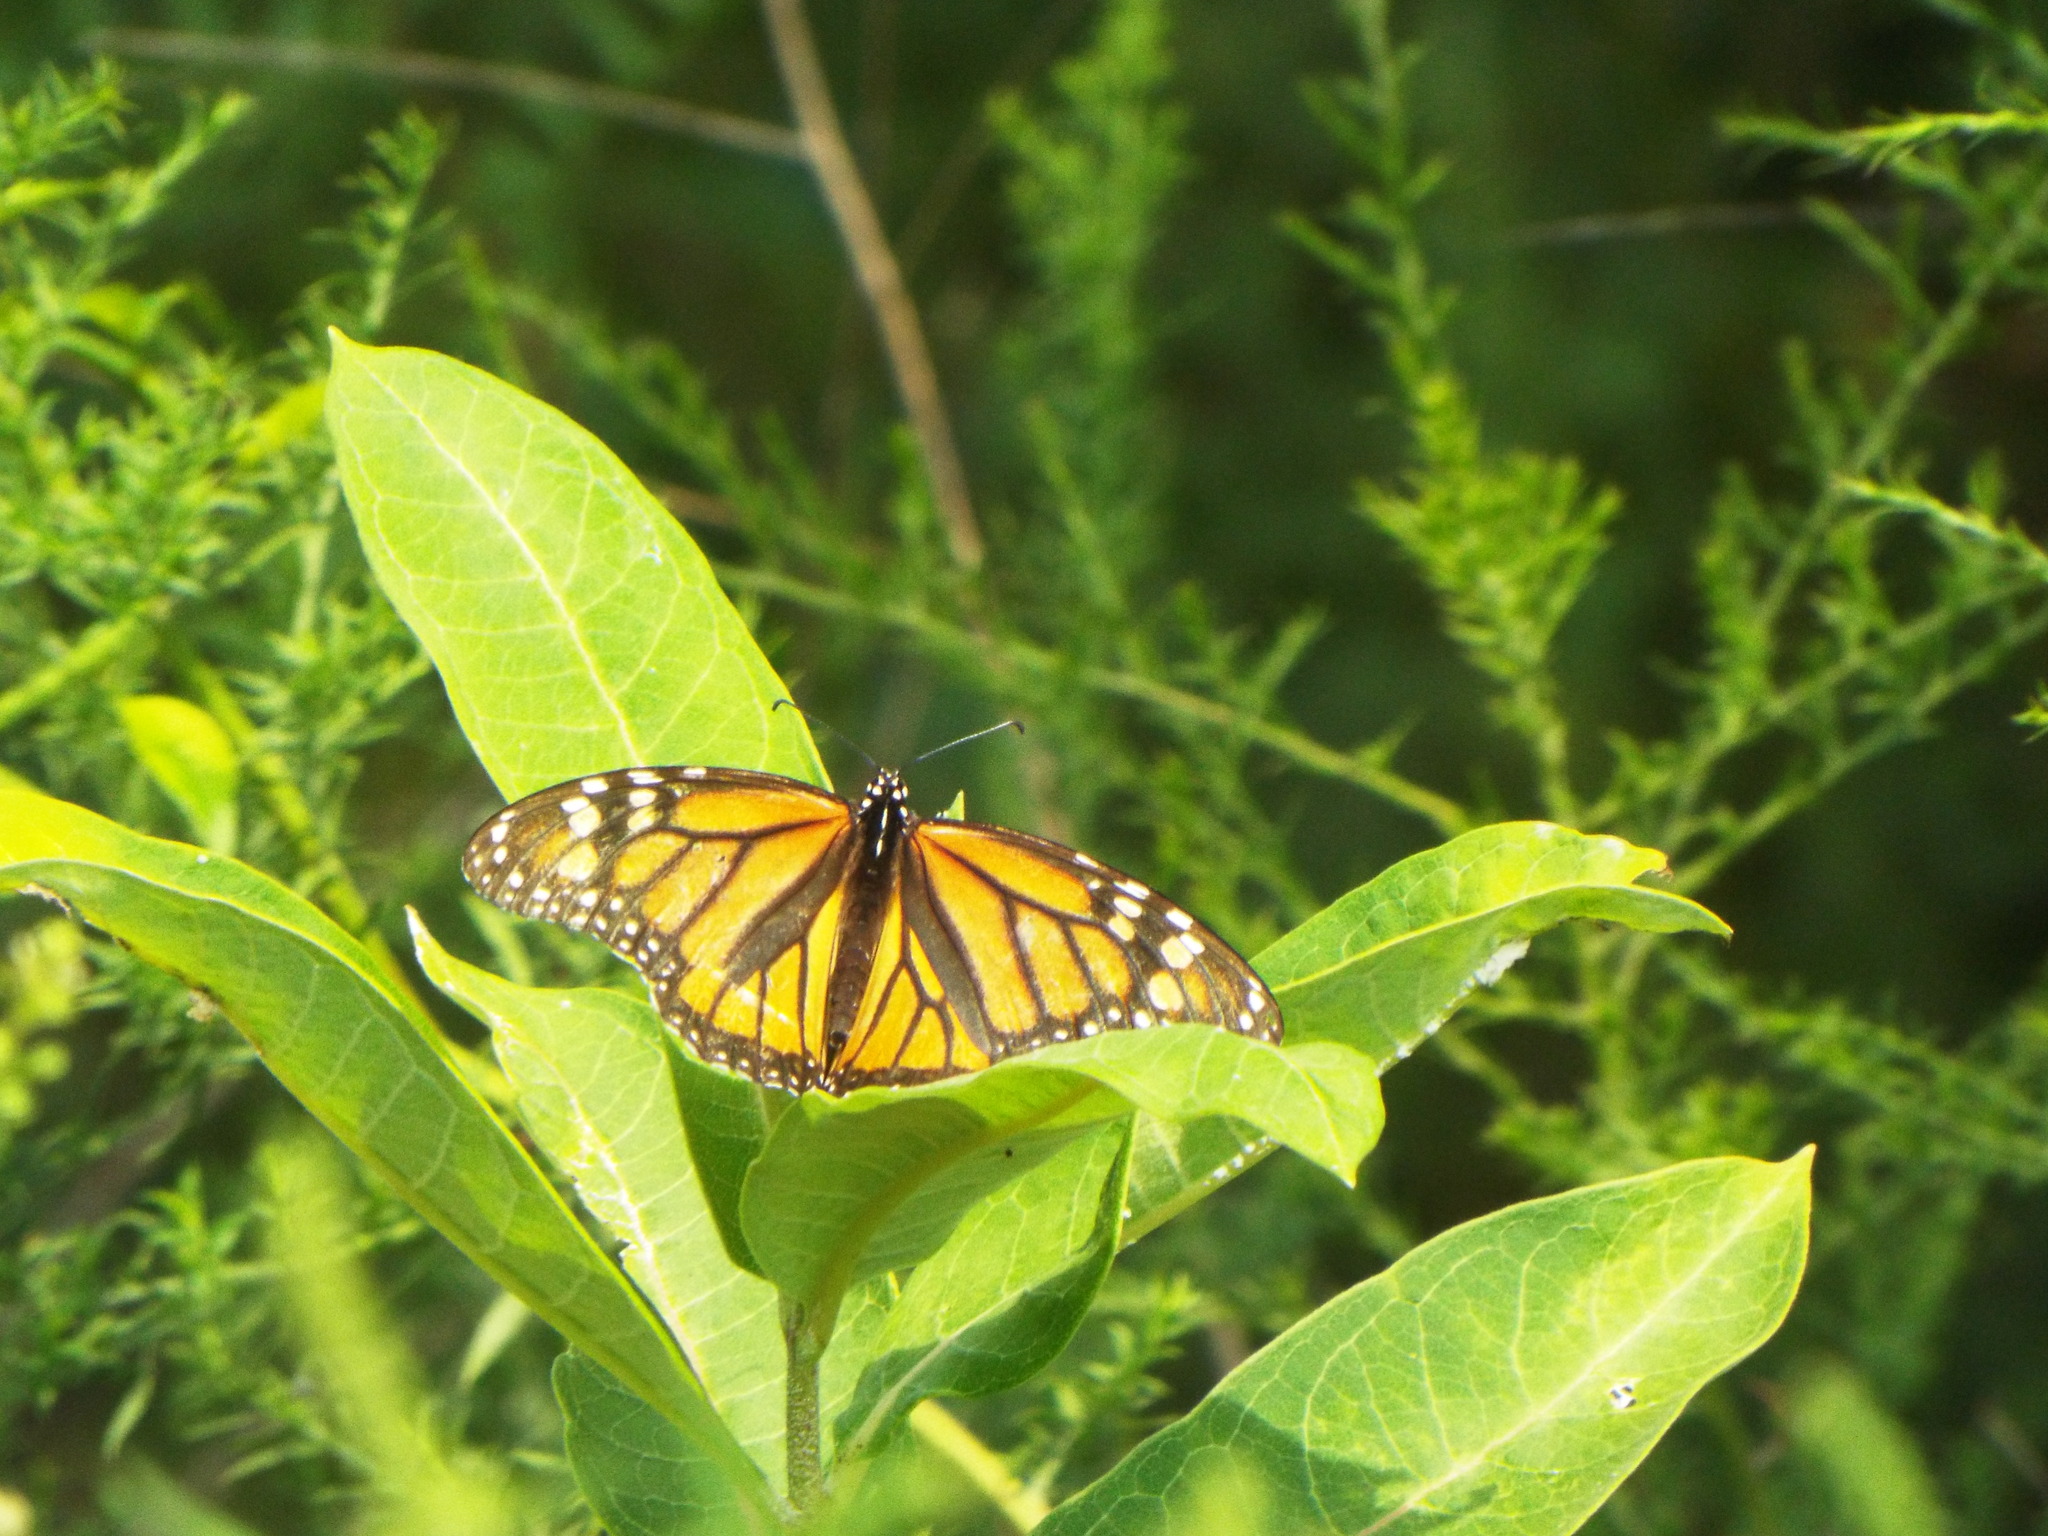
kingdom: Animalia
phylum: Arthropoda
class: Insecta
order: Lepidoptera
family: Nymphalidae
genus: Danaus
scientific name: Danaus plexippus
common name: Monarch
